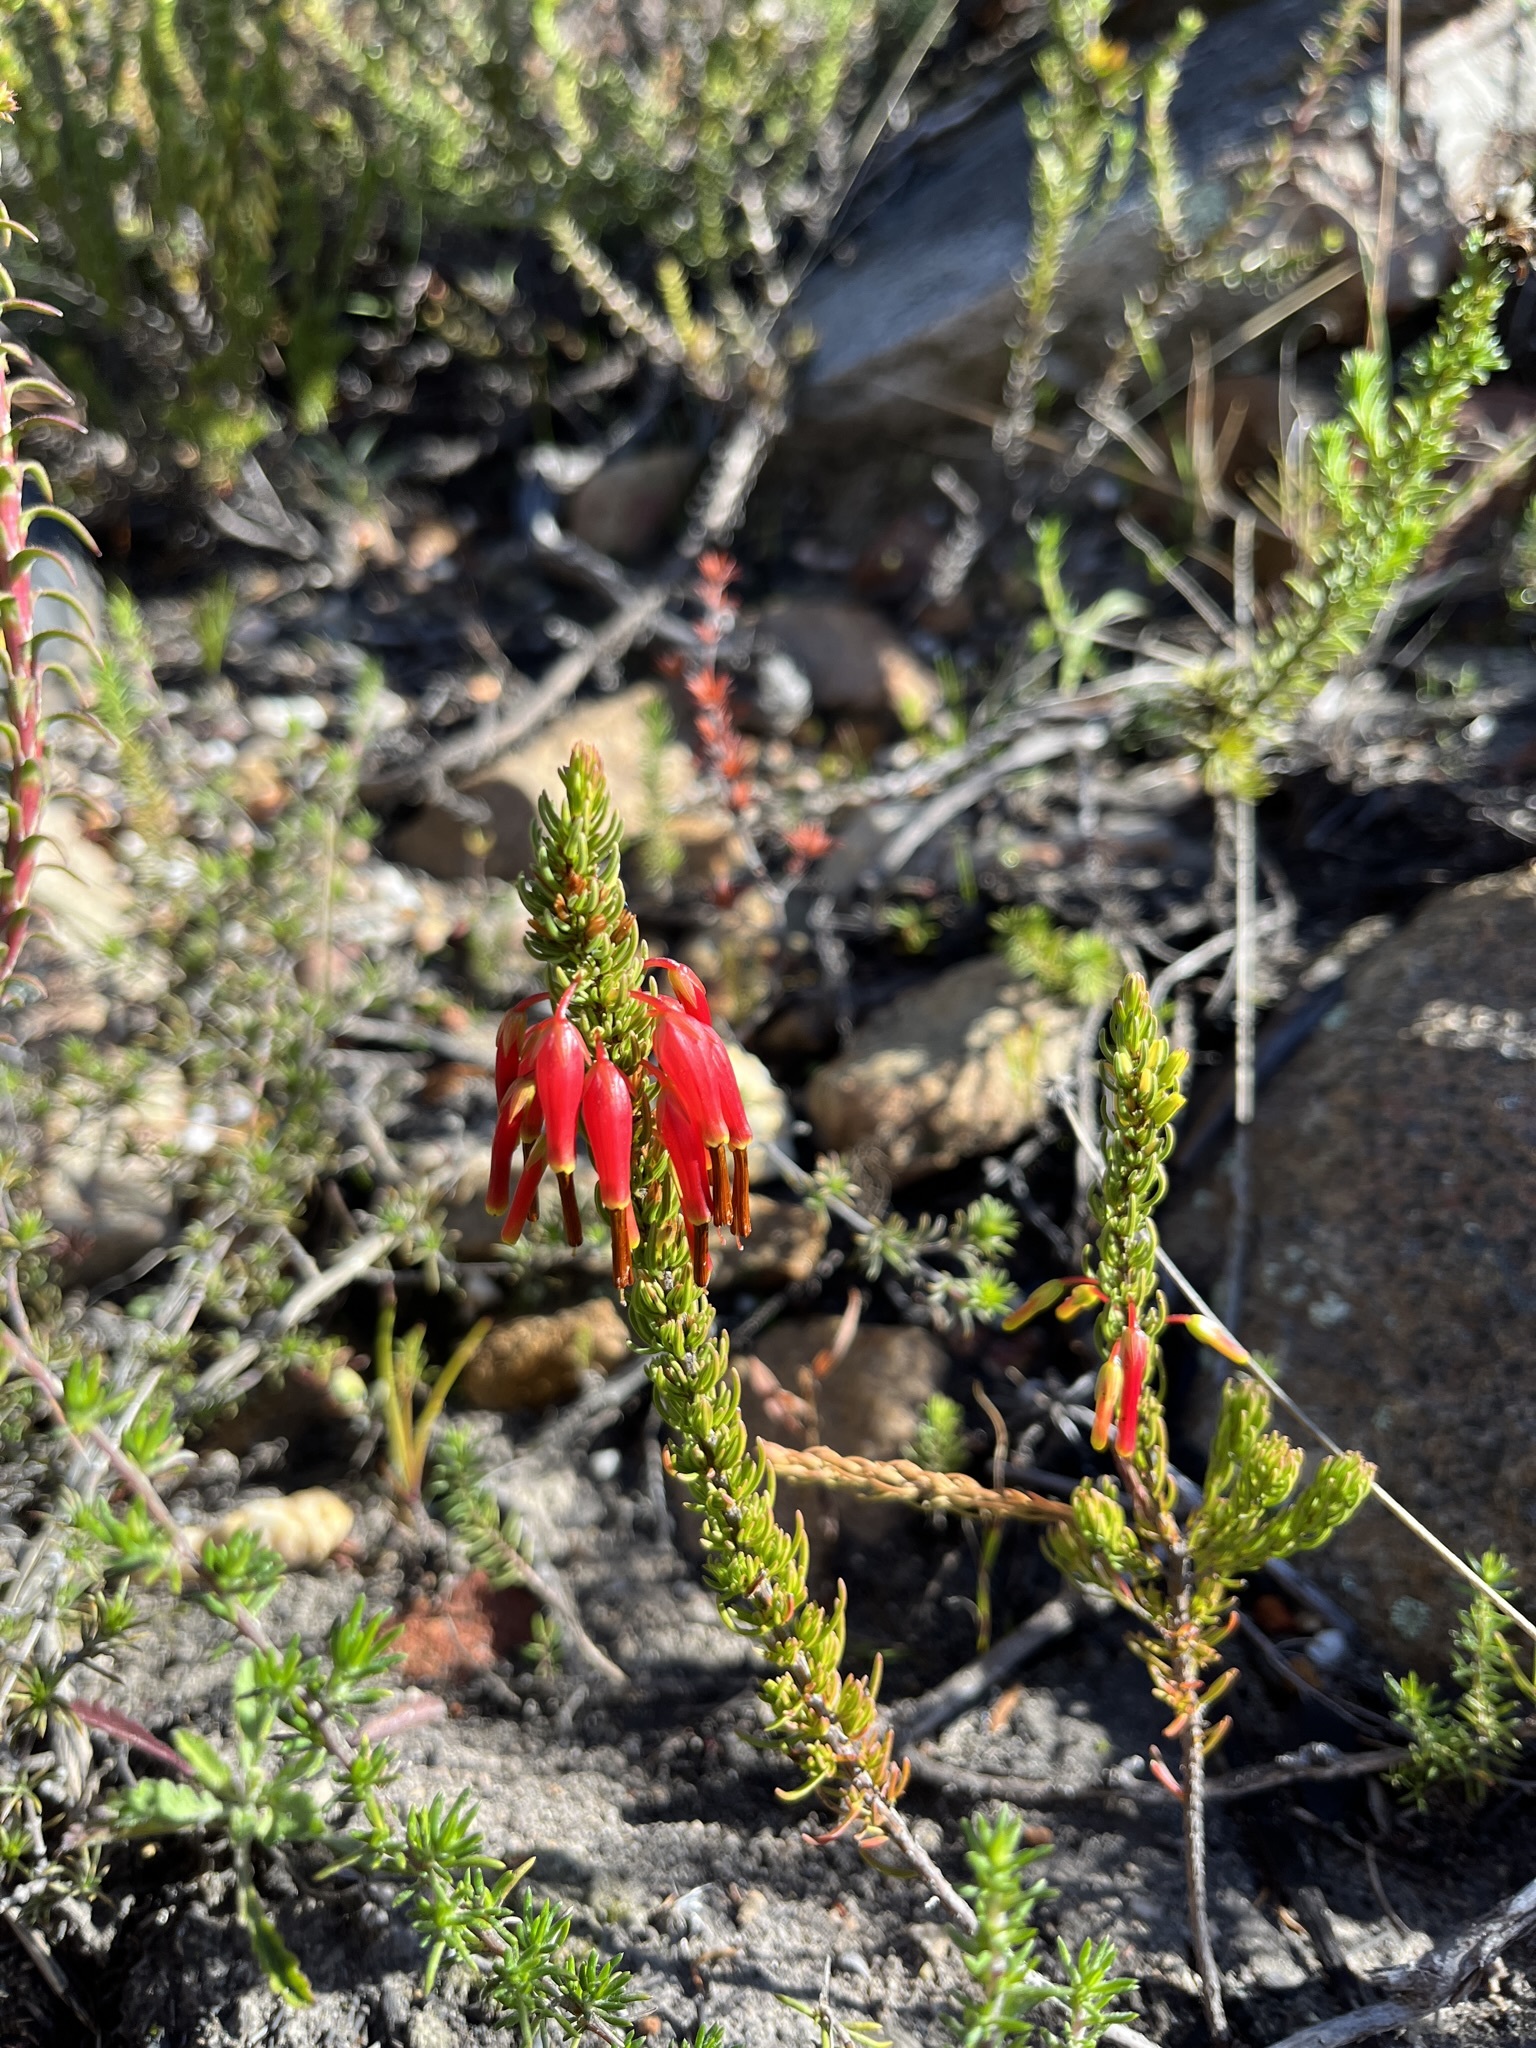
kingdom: Plantae
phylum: Tracheophyta
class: Magnoliopsida
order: Ericales
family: Ericaceae
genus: Erica
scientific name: Erica plukenetii
